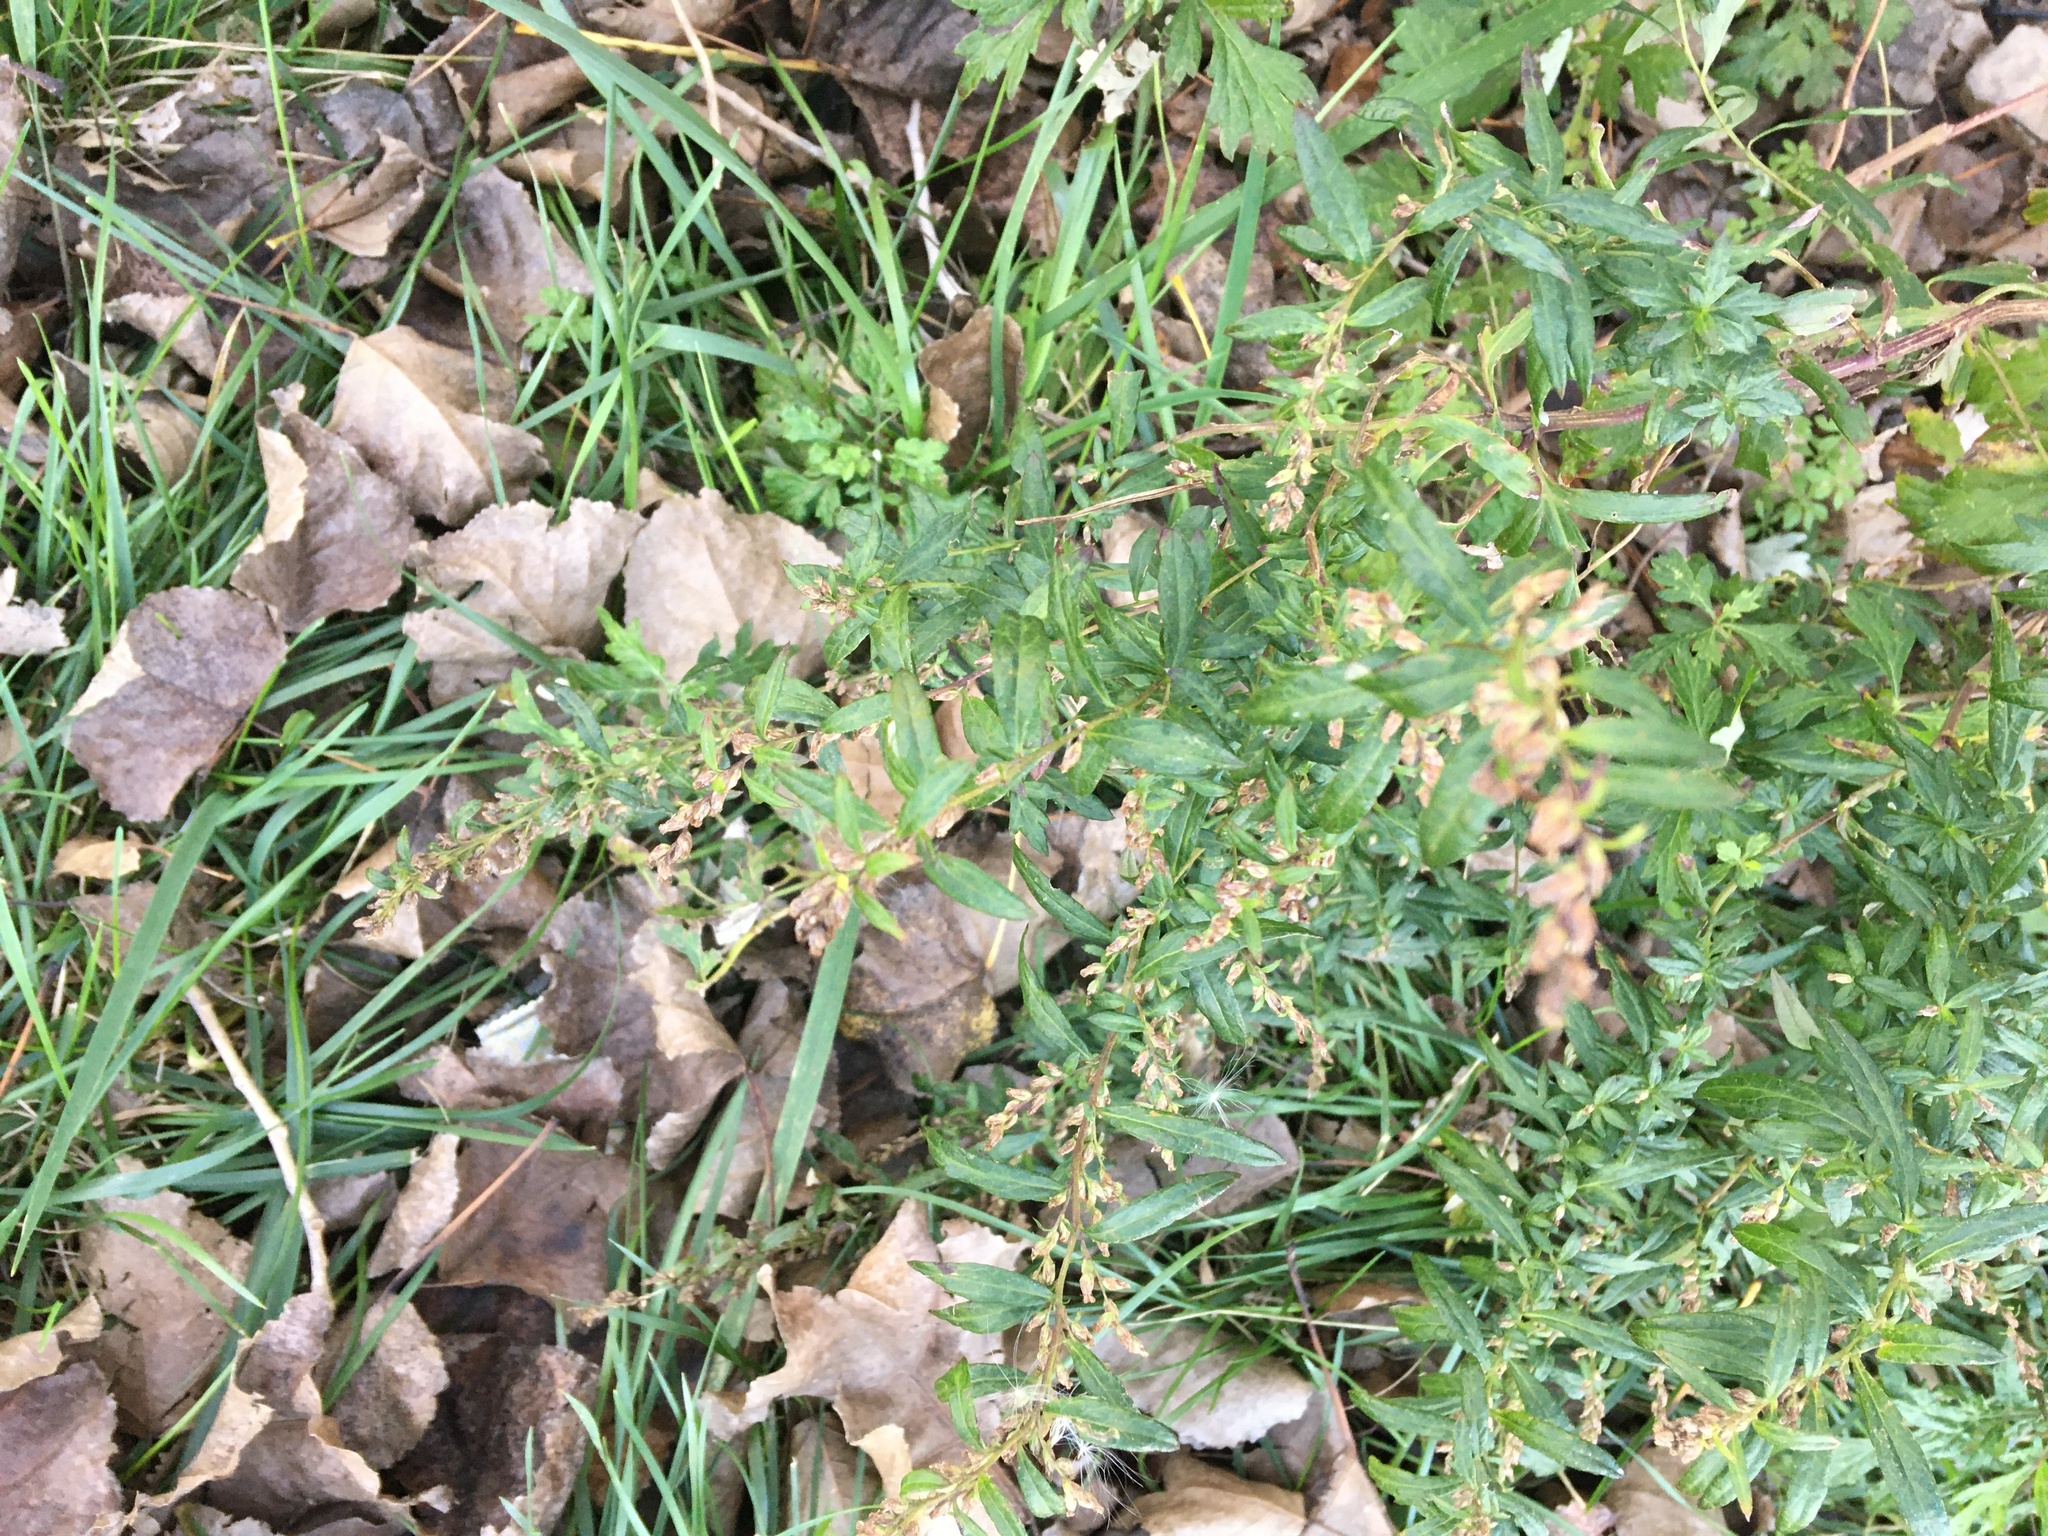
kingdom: Plantae
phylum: Tracheophyta
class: Magnoliopsida
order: Asterales
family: Asteraceae
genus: Artemisia
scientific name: Artemisia vulgaris
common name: Mugwort
